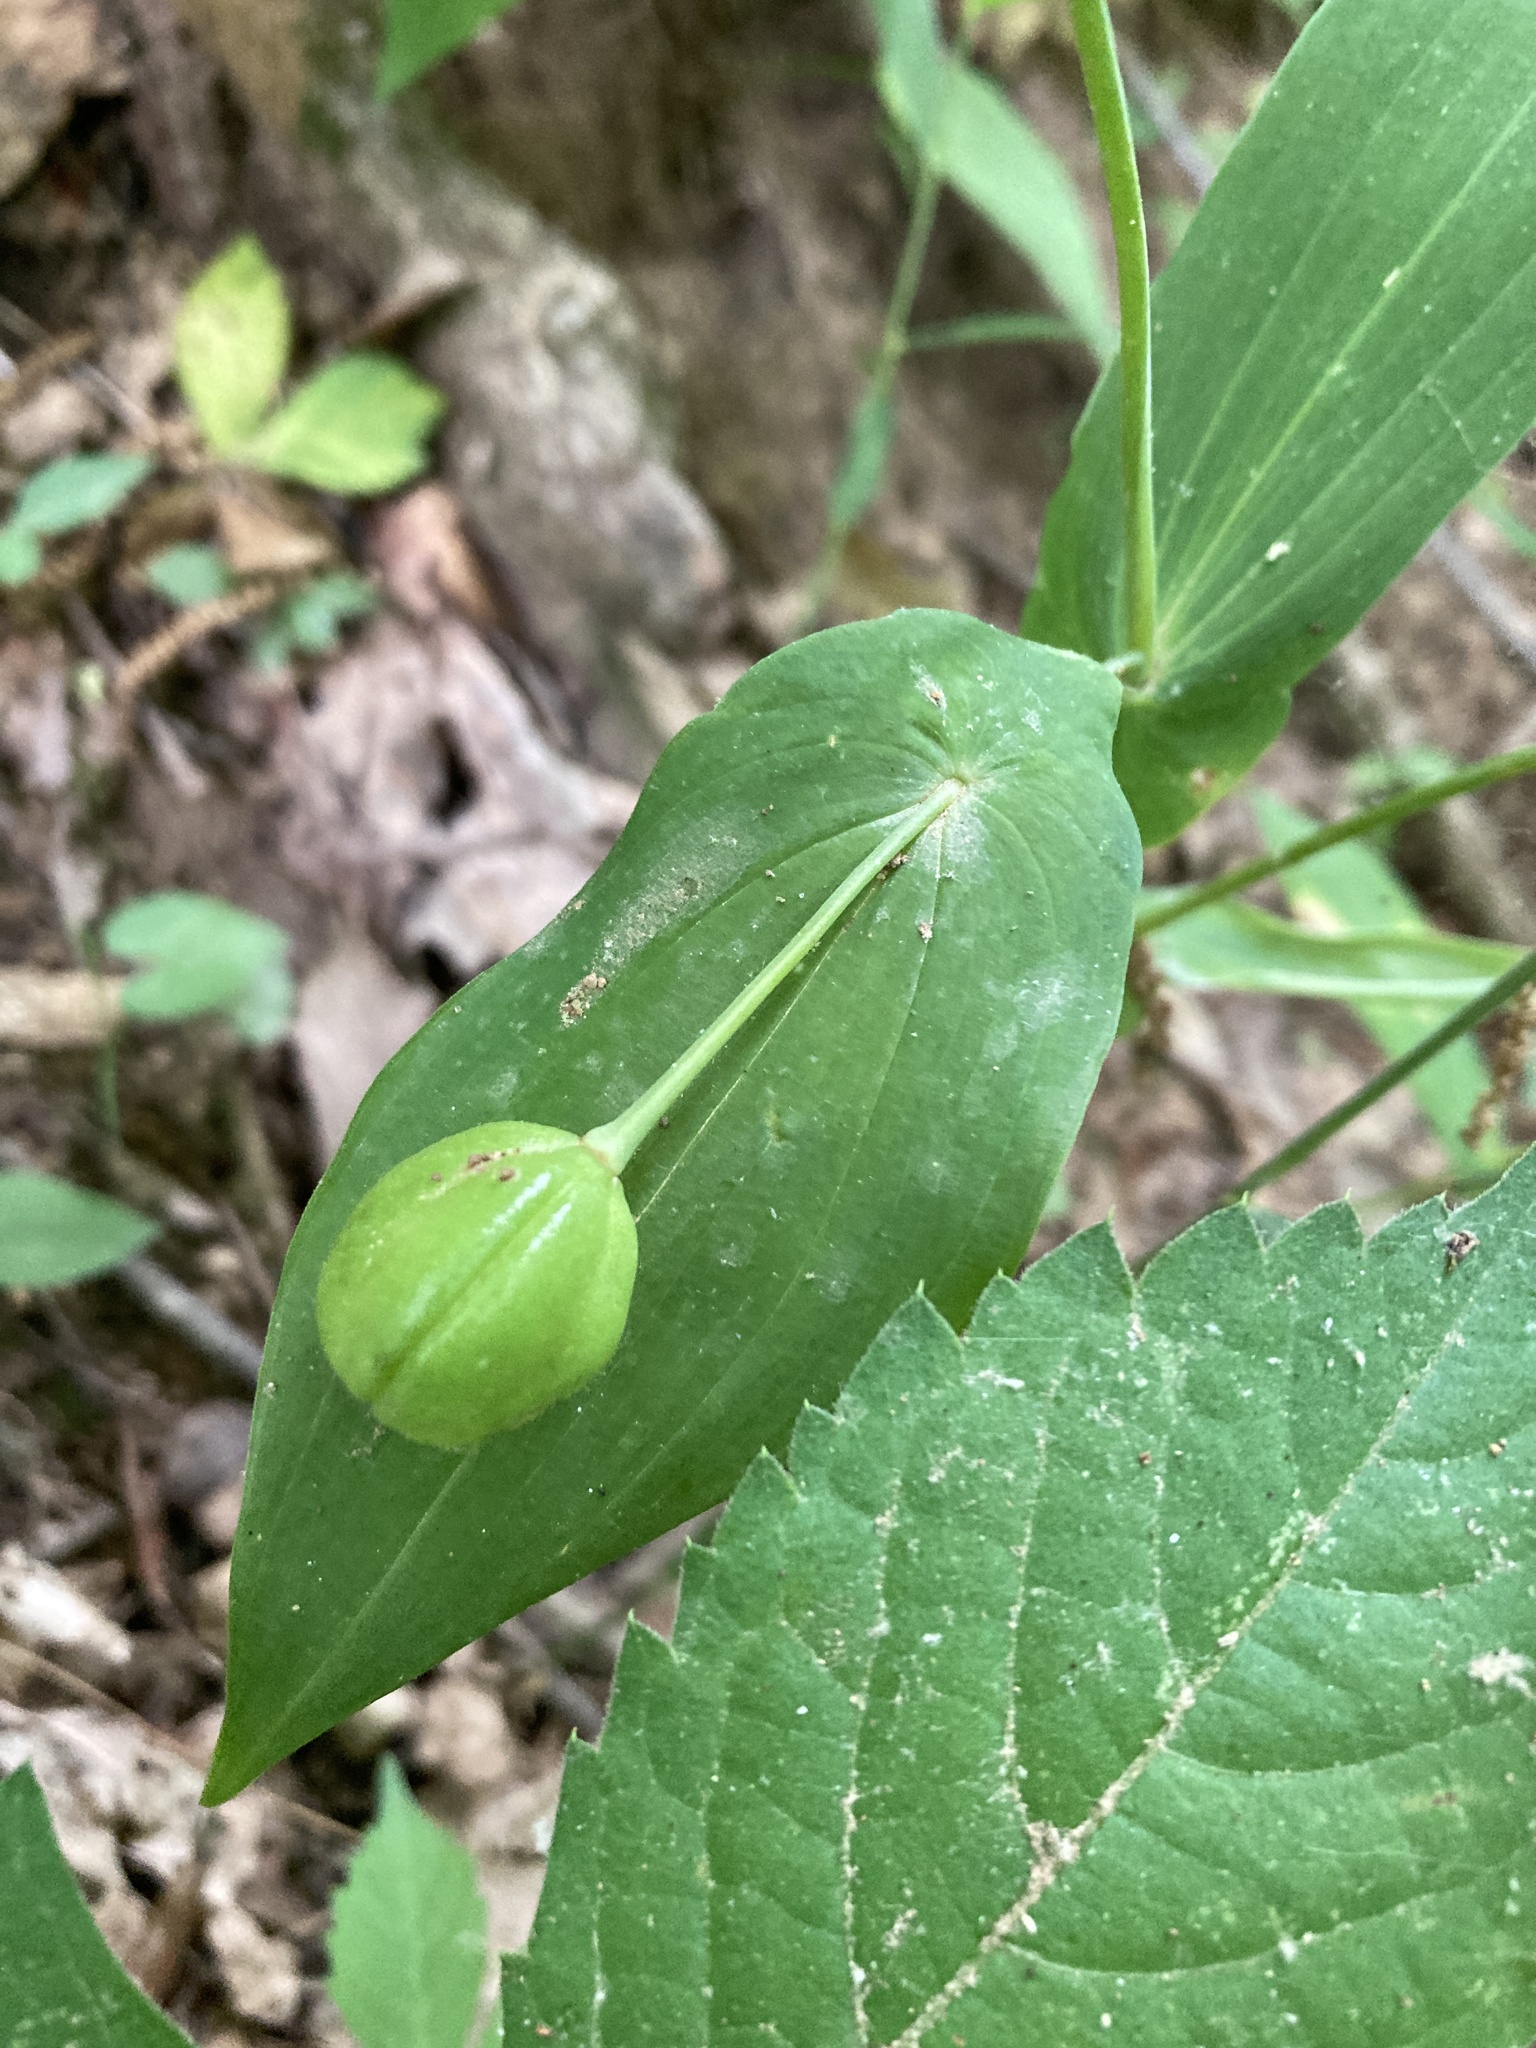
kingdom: Plantae
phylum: Tracheophyta
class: Liliopsida
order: Liliales
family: Colchicaceae
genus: Uvularia
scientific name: Uvularia grandiflora
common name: Bellwort
